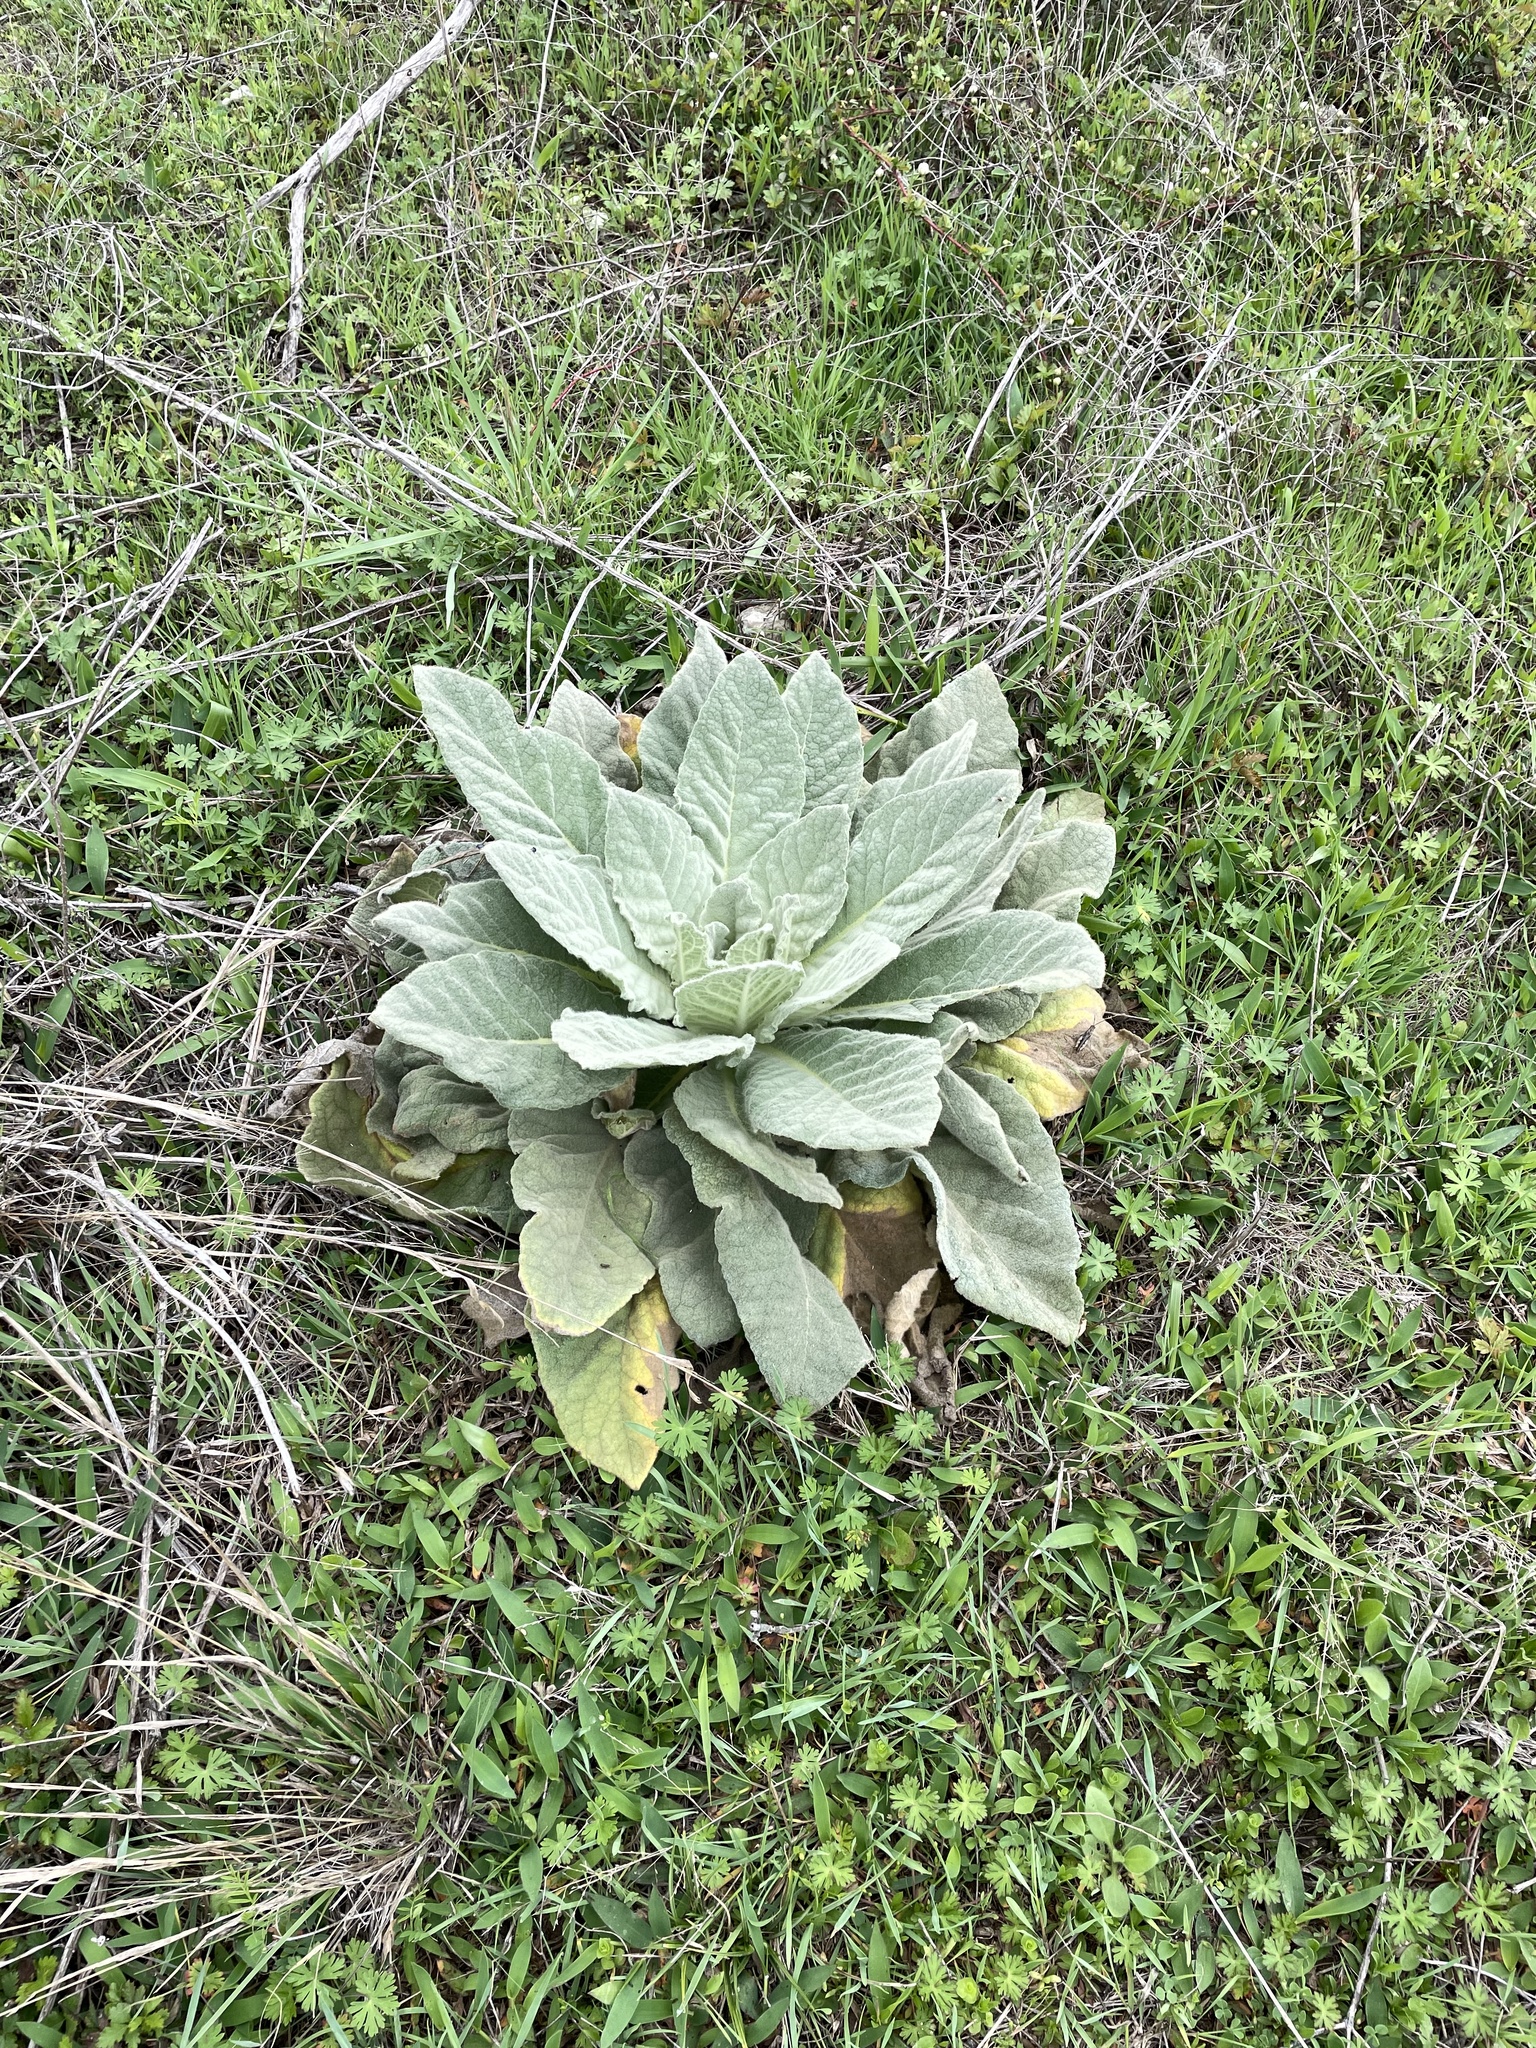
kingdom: Plantae
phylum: Tracheophyta
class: Magnoliopsida
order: Lamiales
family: Scrophulariaceae
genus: Verbascum
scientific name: Verbascum thapsus
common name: Common mullein
